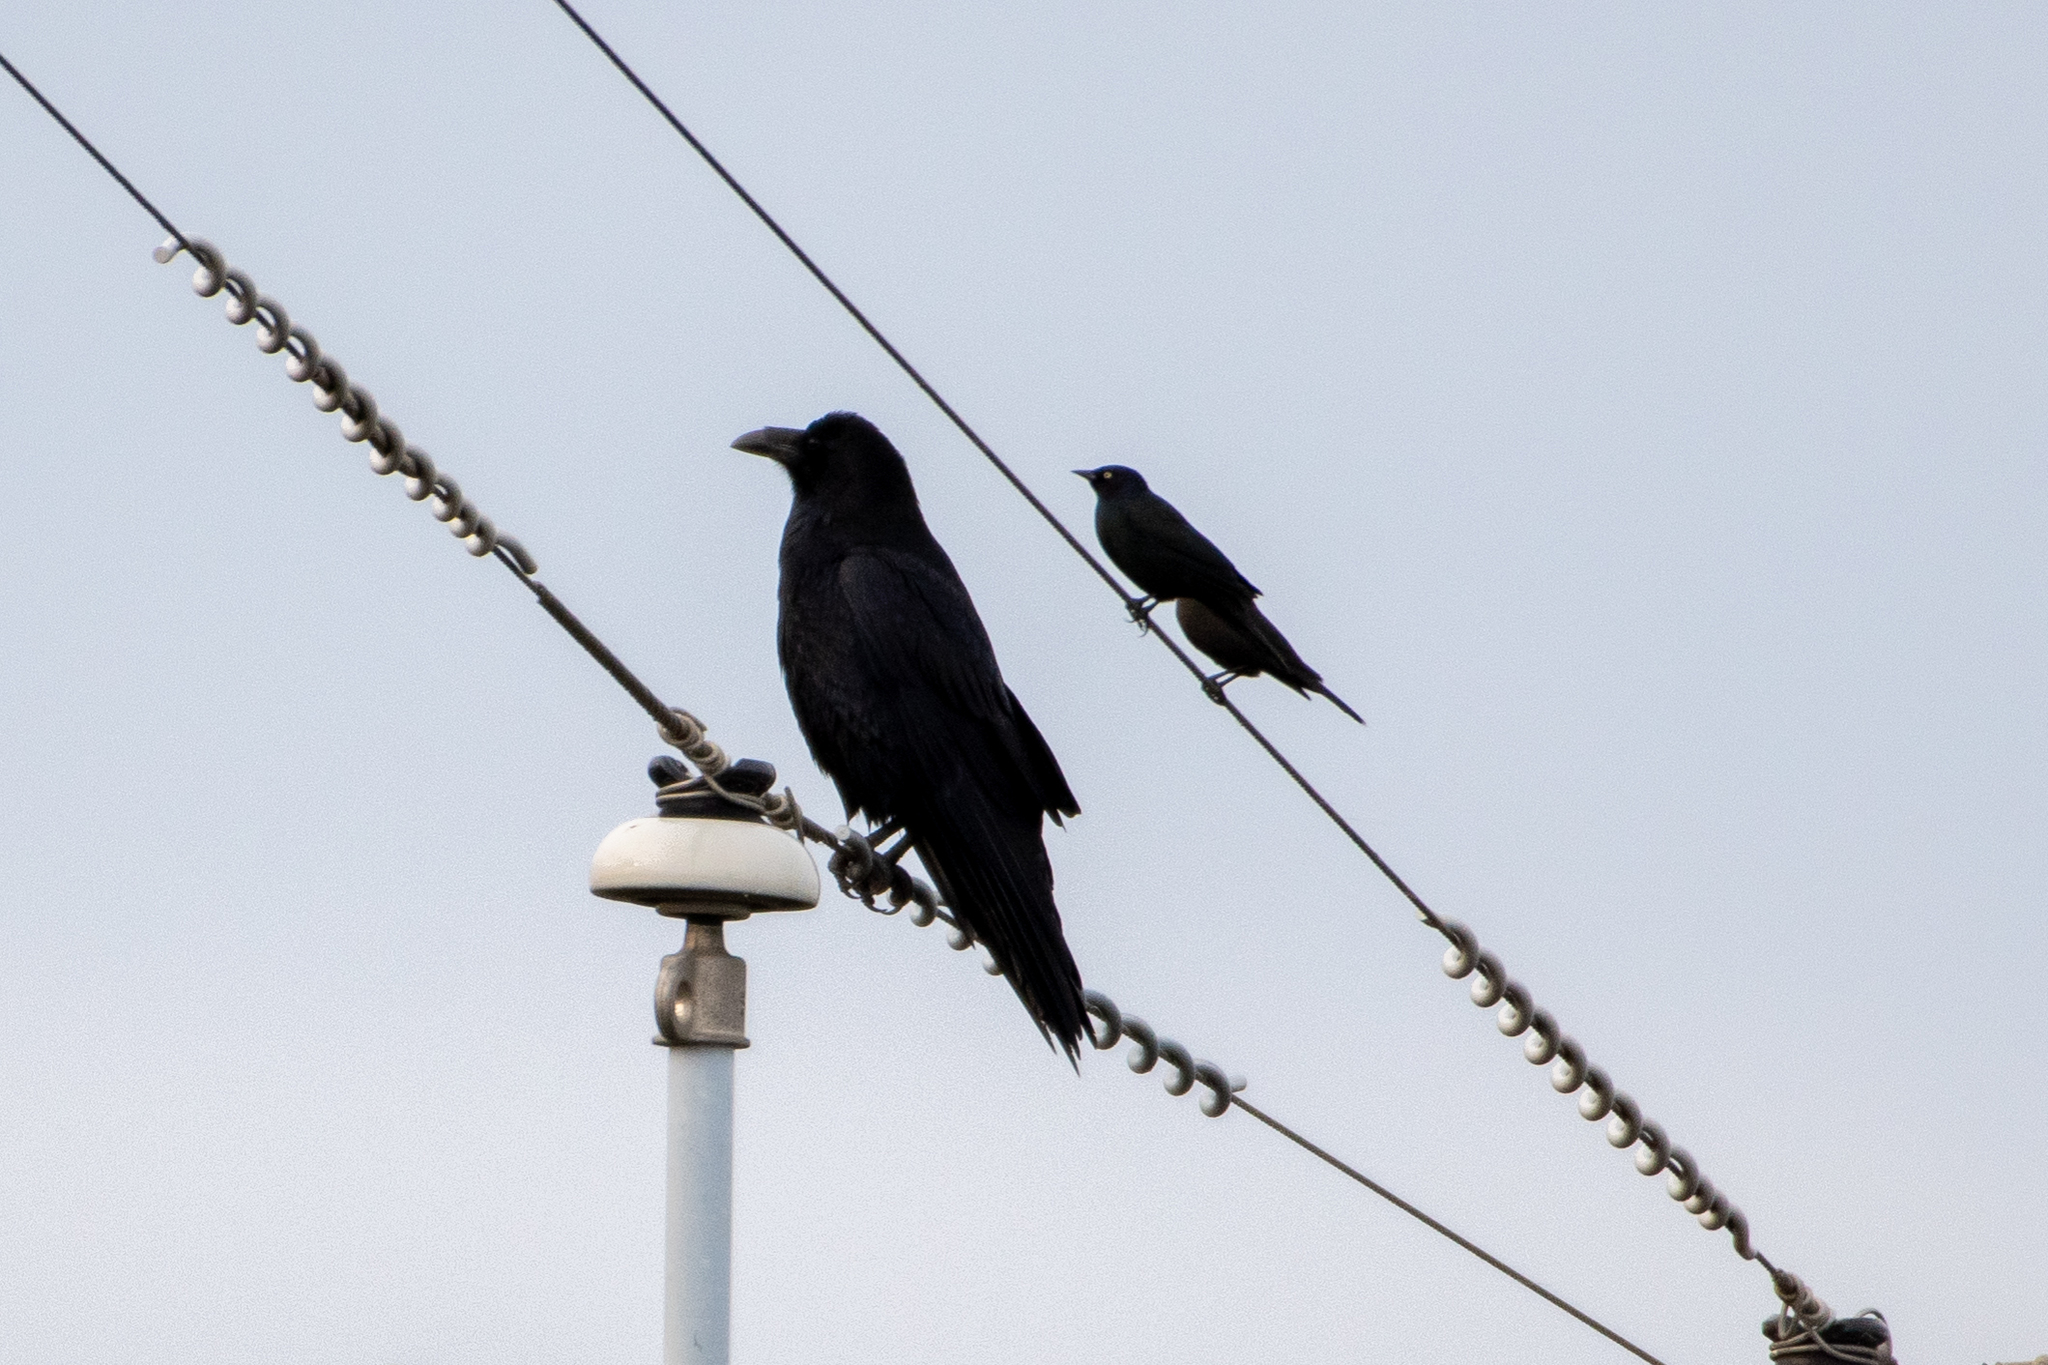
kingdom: Animalia
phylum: Chordata
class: Aves
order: Passeriformes
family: Corvidae
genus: Corvus
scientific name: Corvus corax
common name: Common raven
